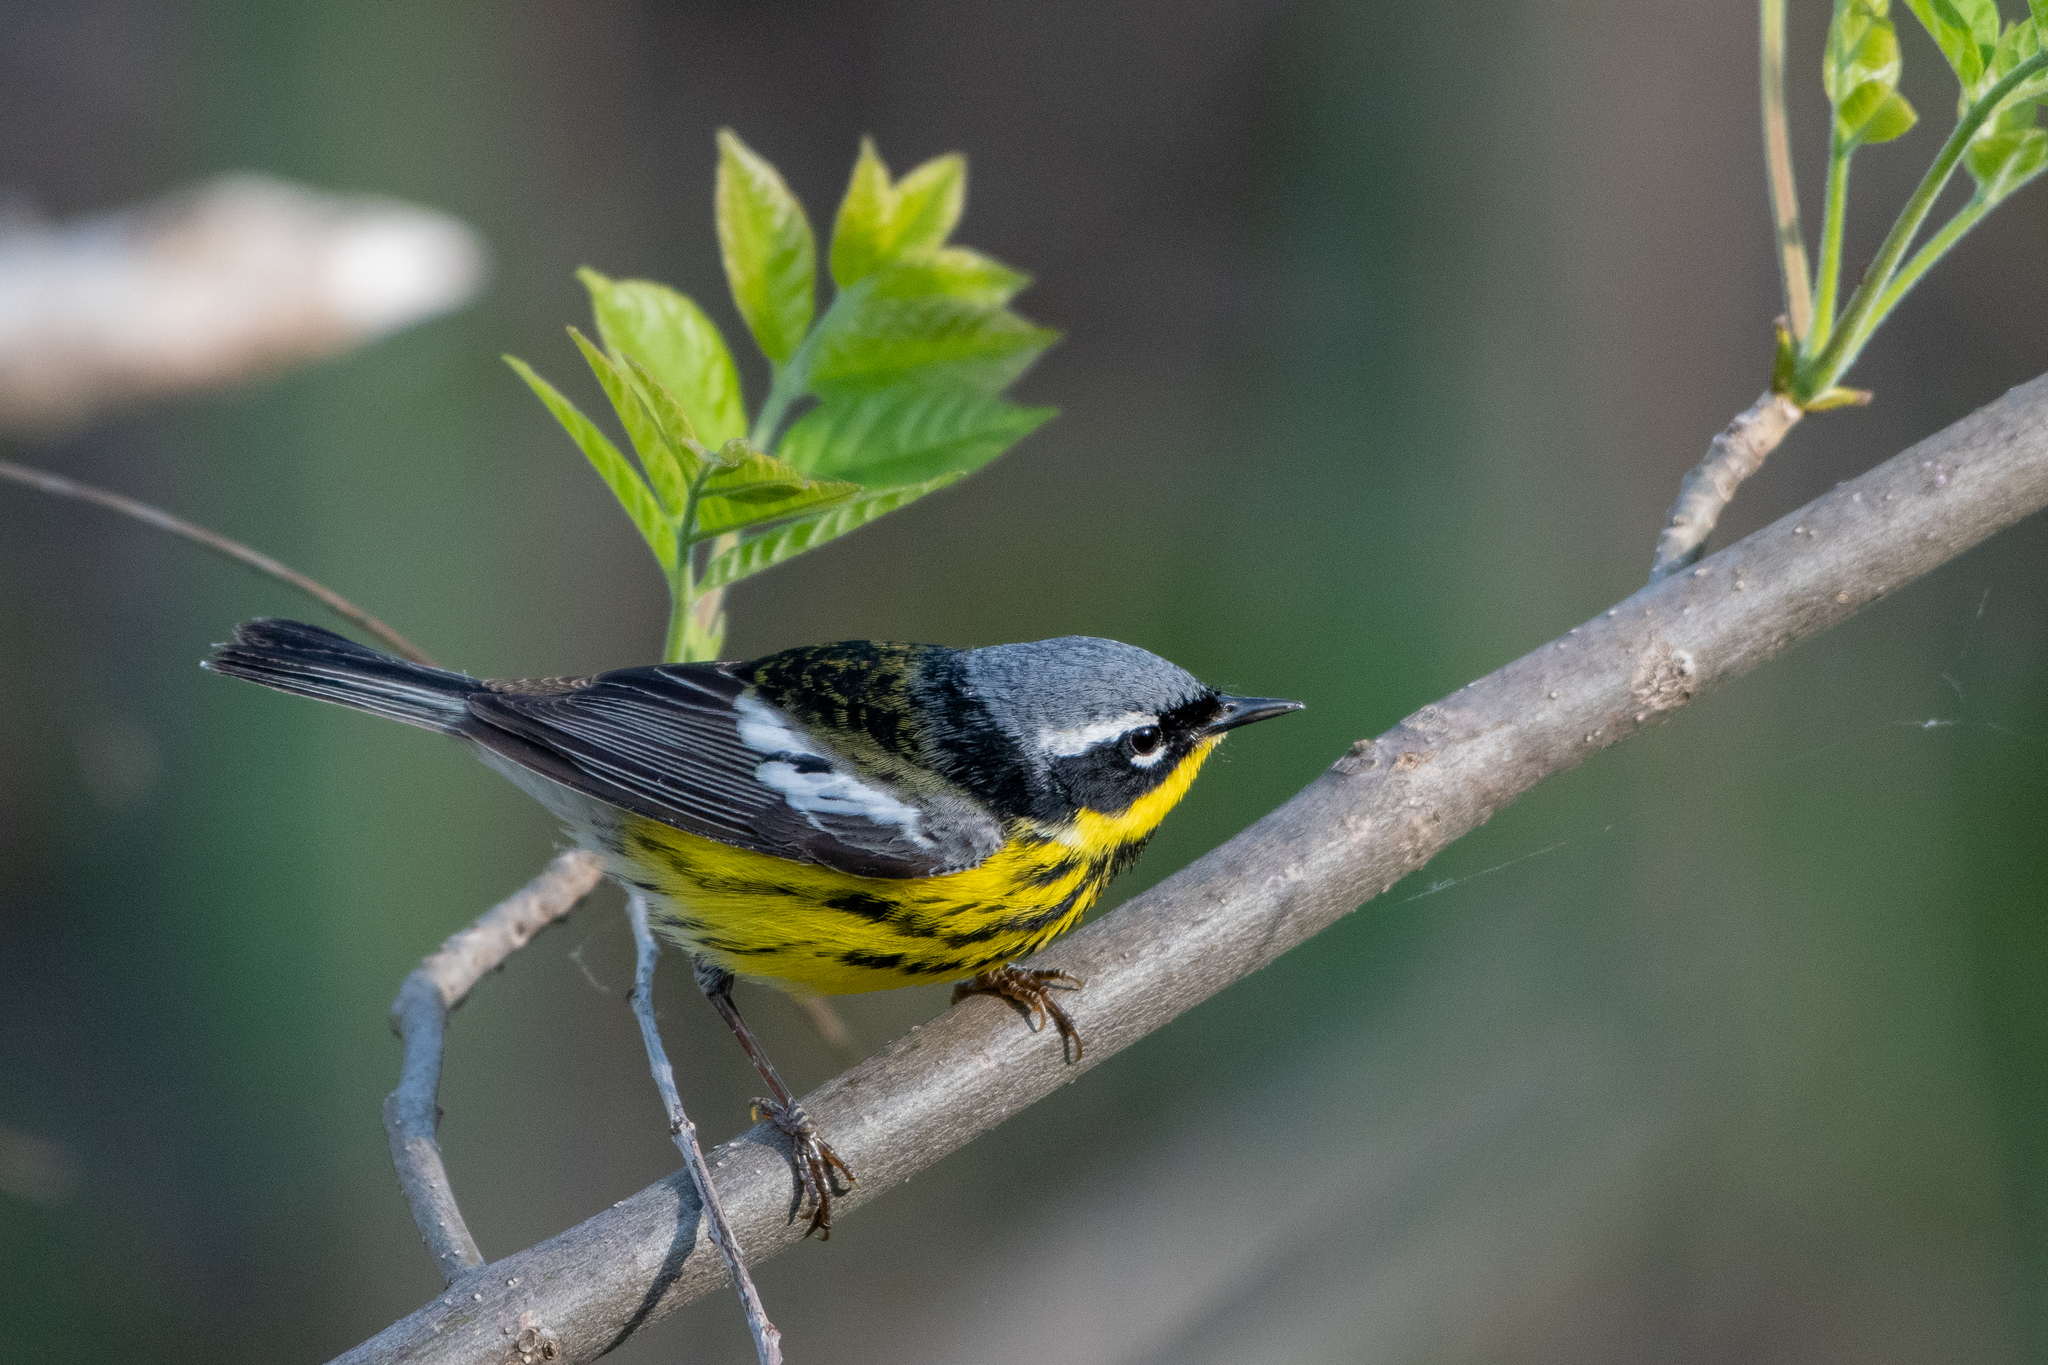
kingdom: Animalia
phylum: Chordata
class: Aves
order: Passeriformes
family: Parulidae
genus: Setophaga
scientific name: Setophaga magnolia
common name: Magnolia warbler
